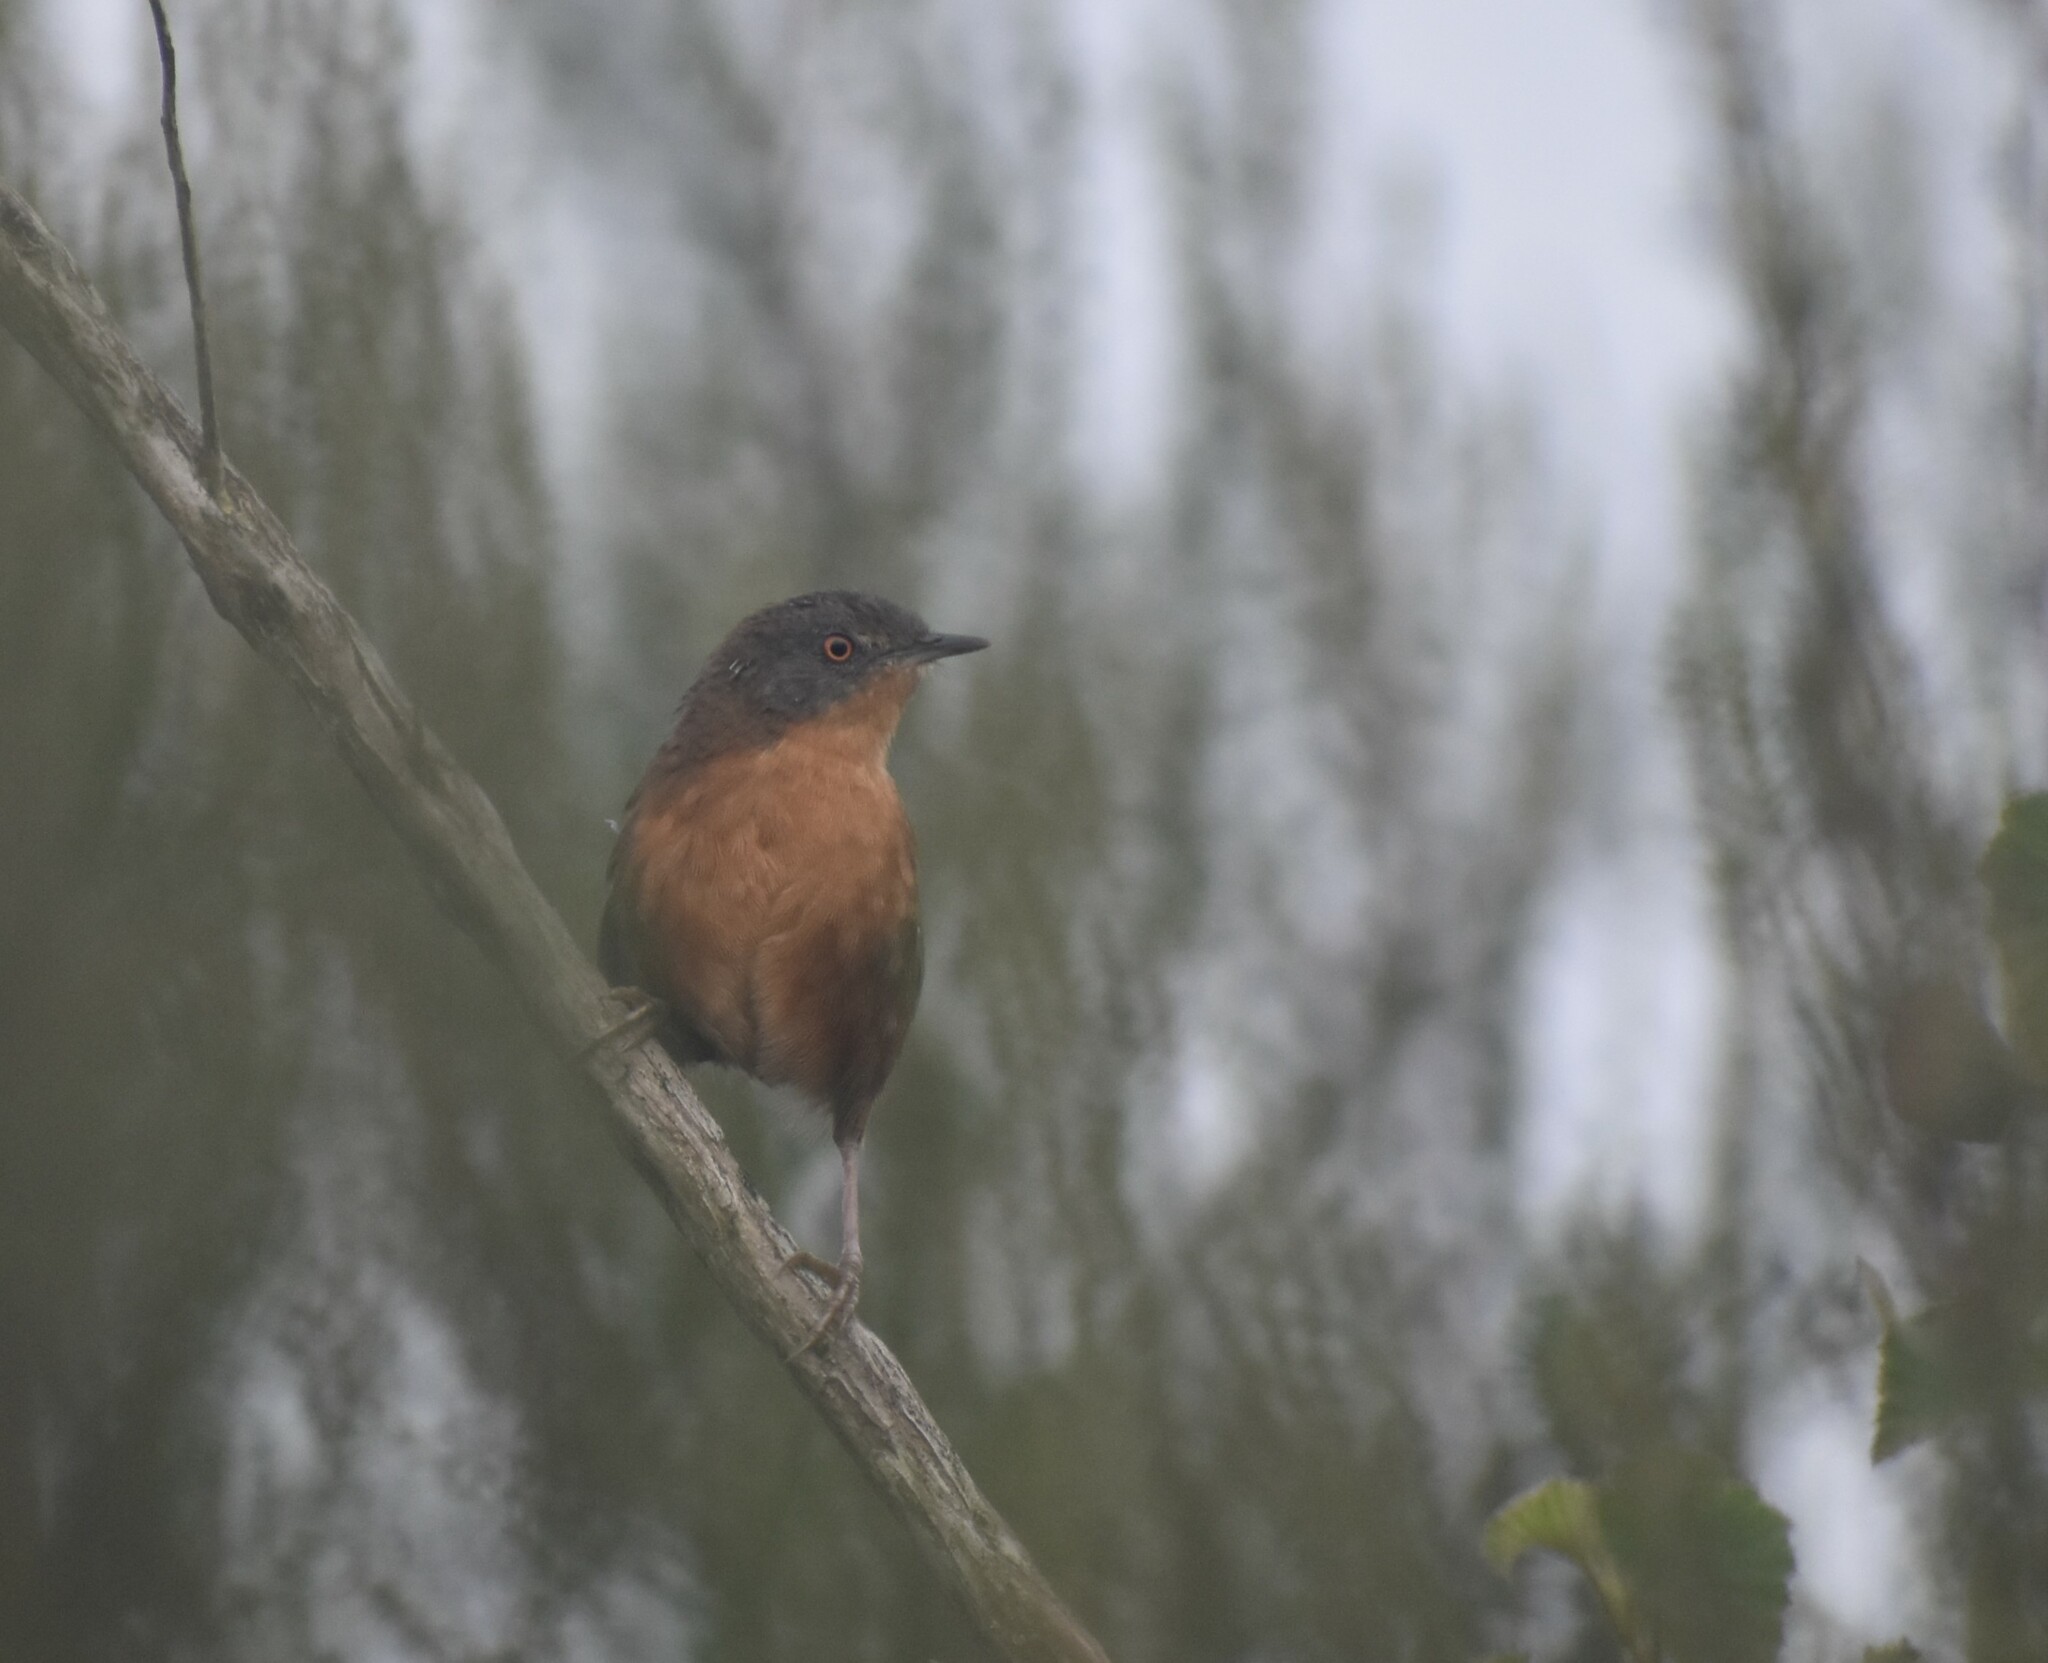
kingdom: Animalia
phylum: Chordata
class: Aves
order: Passeriformes
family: Macrosphenidae
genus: Cryptillas
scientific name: Cryptillas victorini
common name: Victorin's warbler
